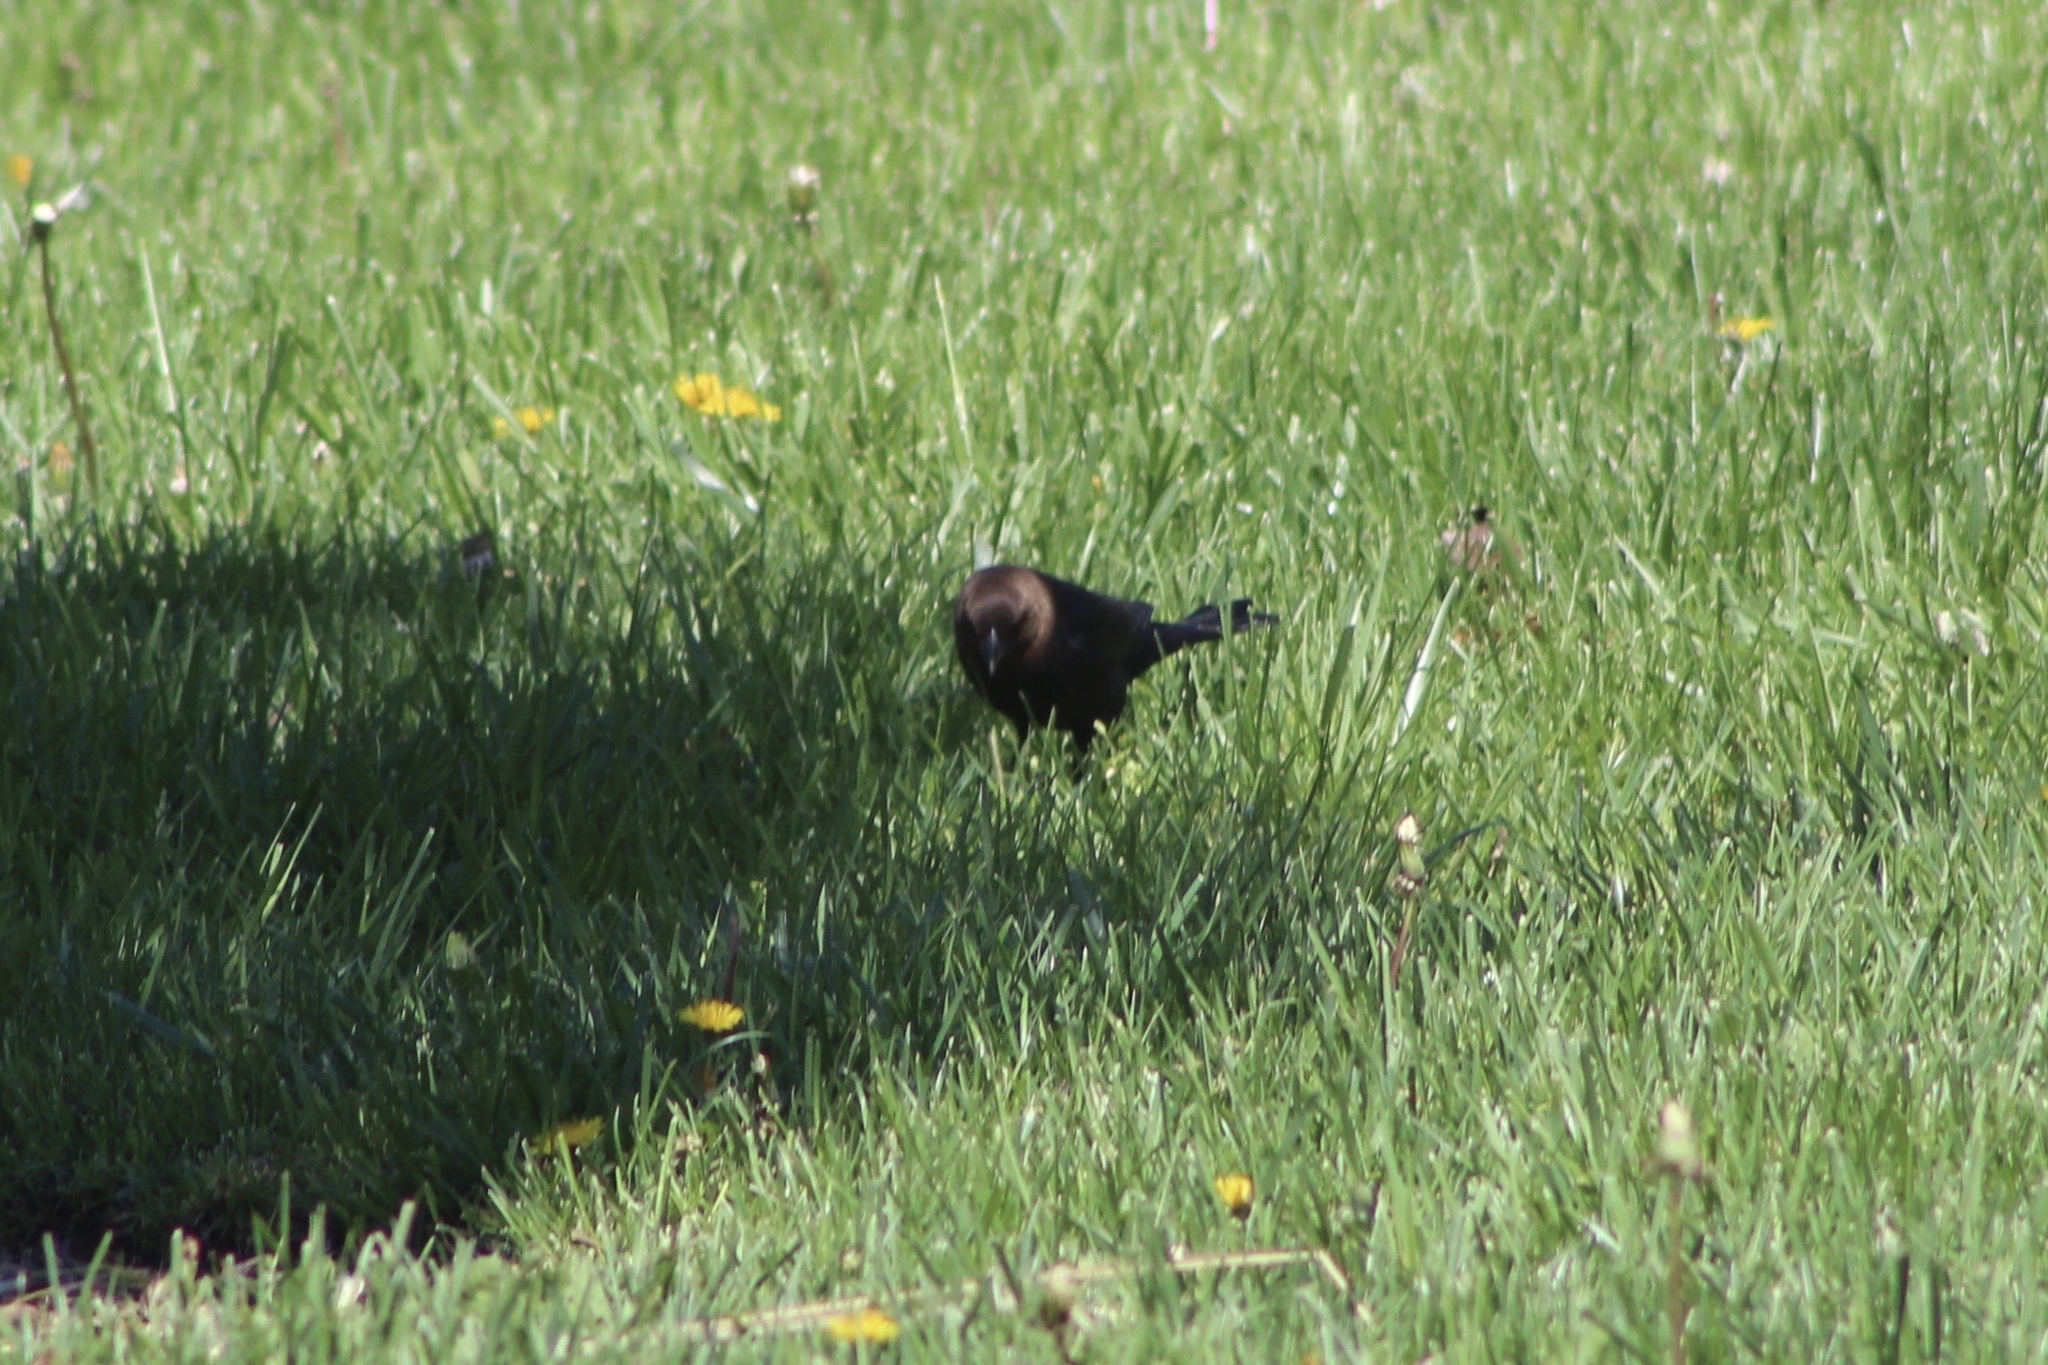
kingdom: Animalia
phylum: Chordata
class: Aves
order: Passeriformes
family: Icteridae
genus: Molothrus
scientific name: Molothrus ater
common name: Brown-headed cowbird
